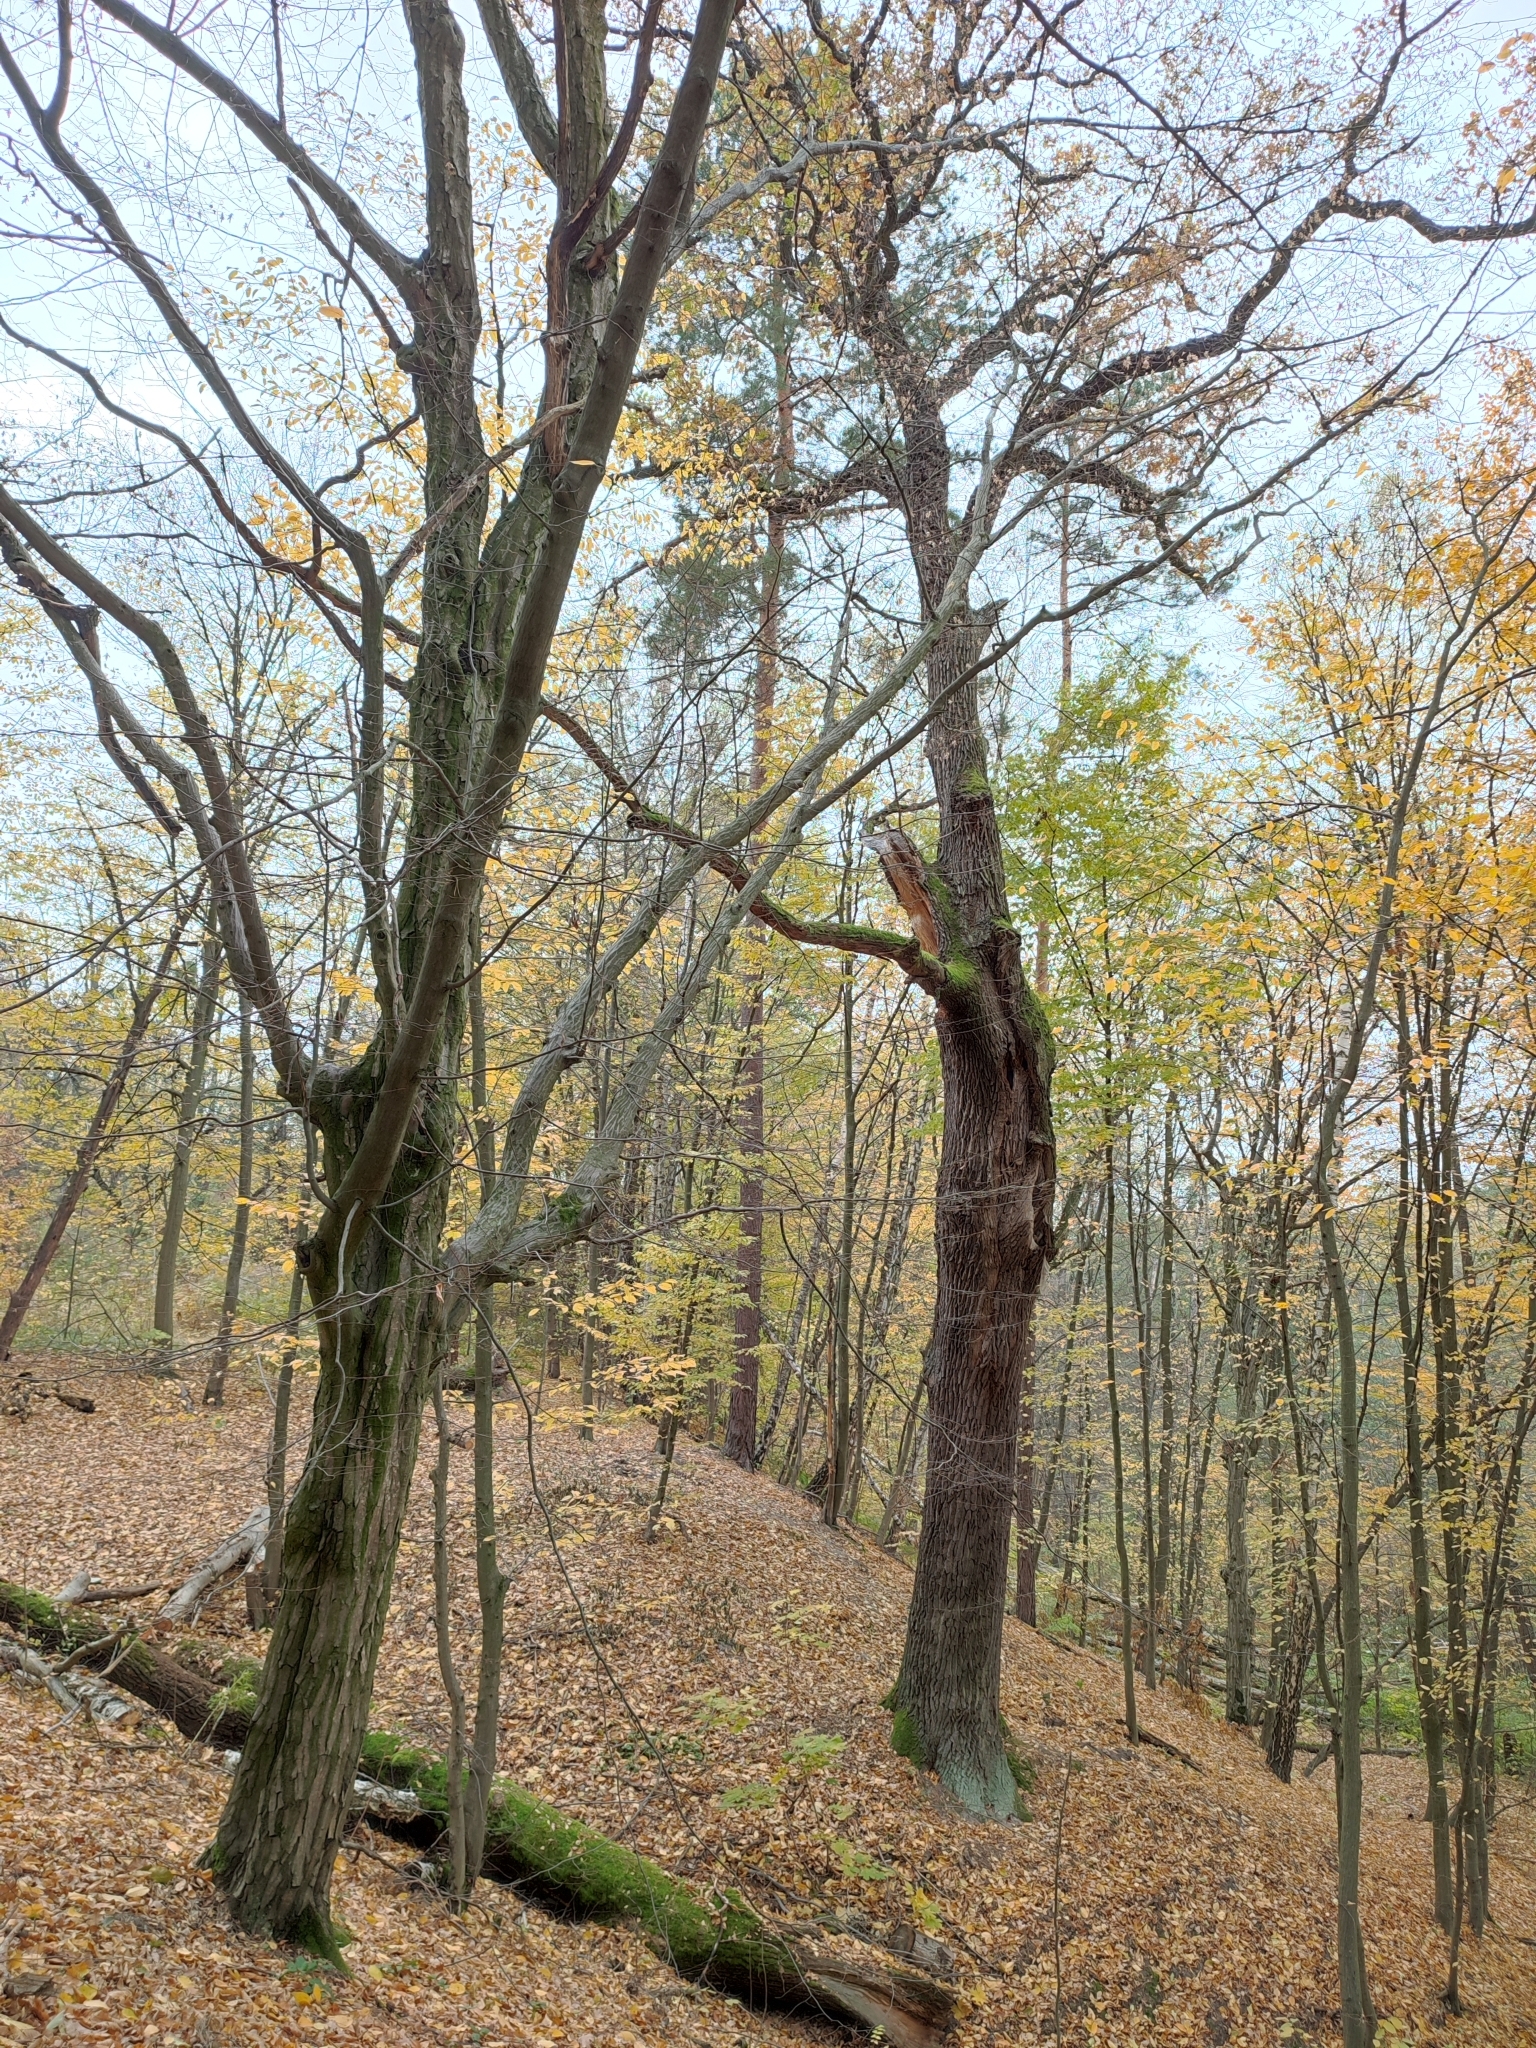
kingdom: Plantae
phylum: Tracheophyta
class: Magnoliopsida
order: Fagales
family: Fagaceae
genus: Quercus
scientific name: Quercus robur
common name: Pedunculate oak
